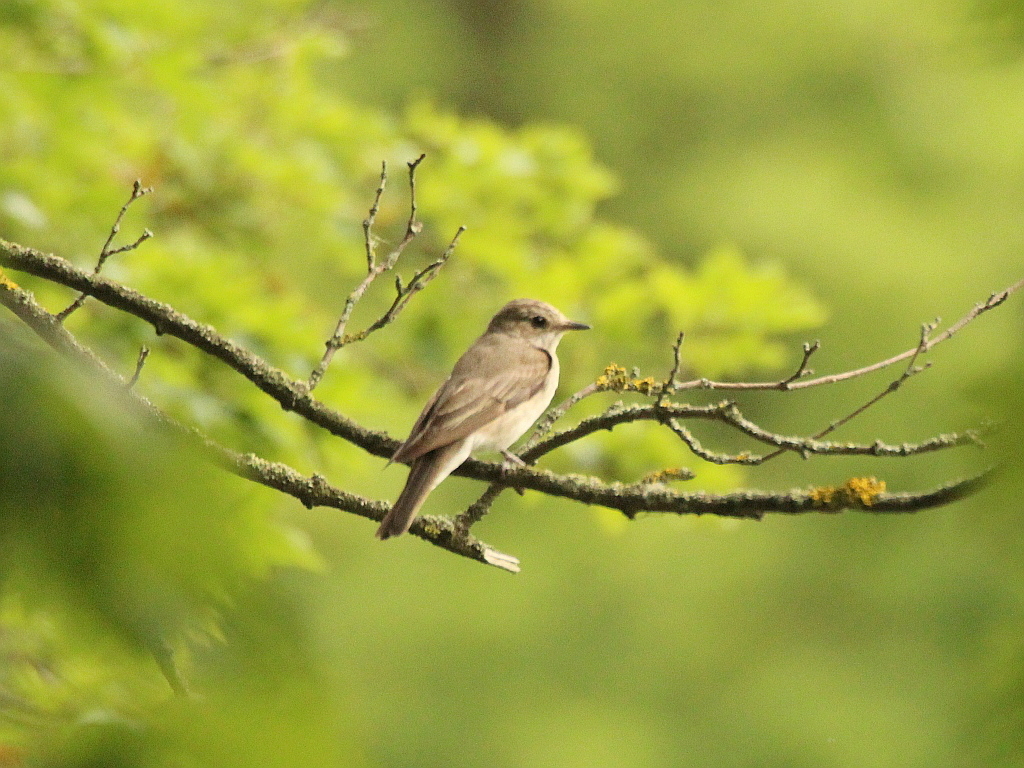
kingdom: Animalia
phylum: Chordata
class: Aves
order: Passeriformes
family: Muscicapidae
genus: Muscicapa
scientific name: Muscicapa striata
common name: Spotted flycatcher
